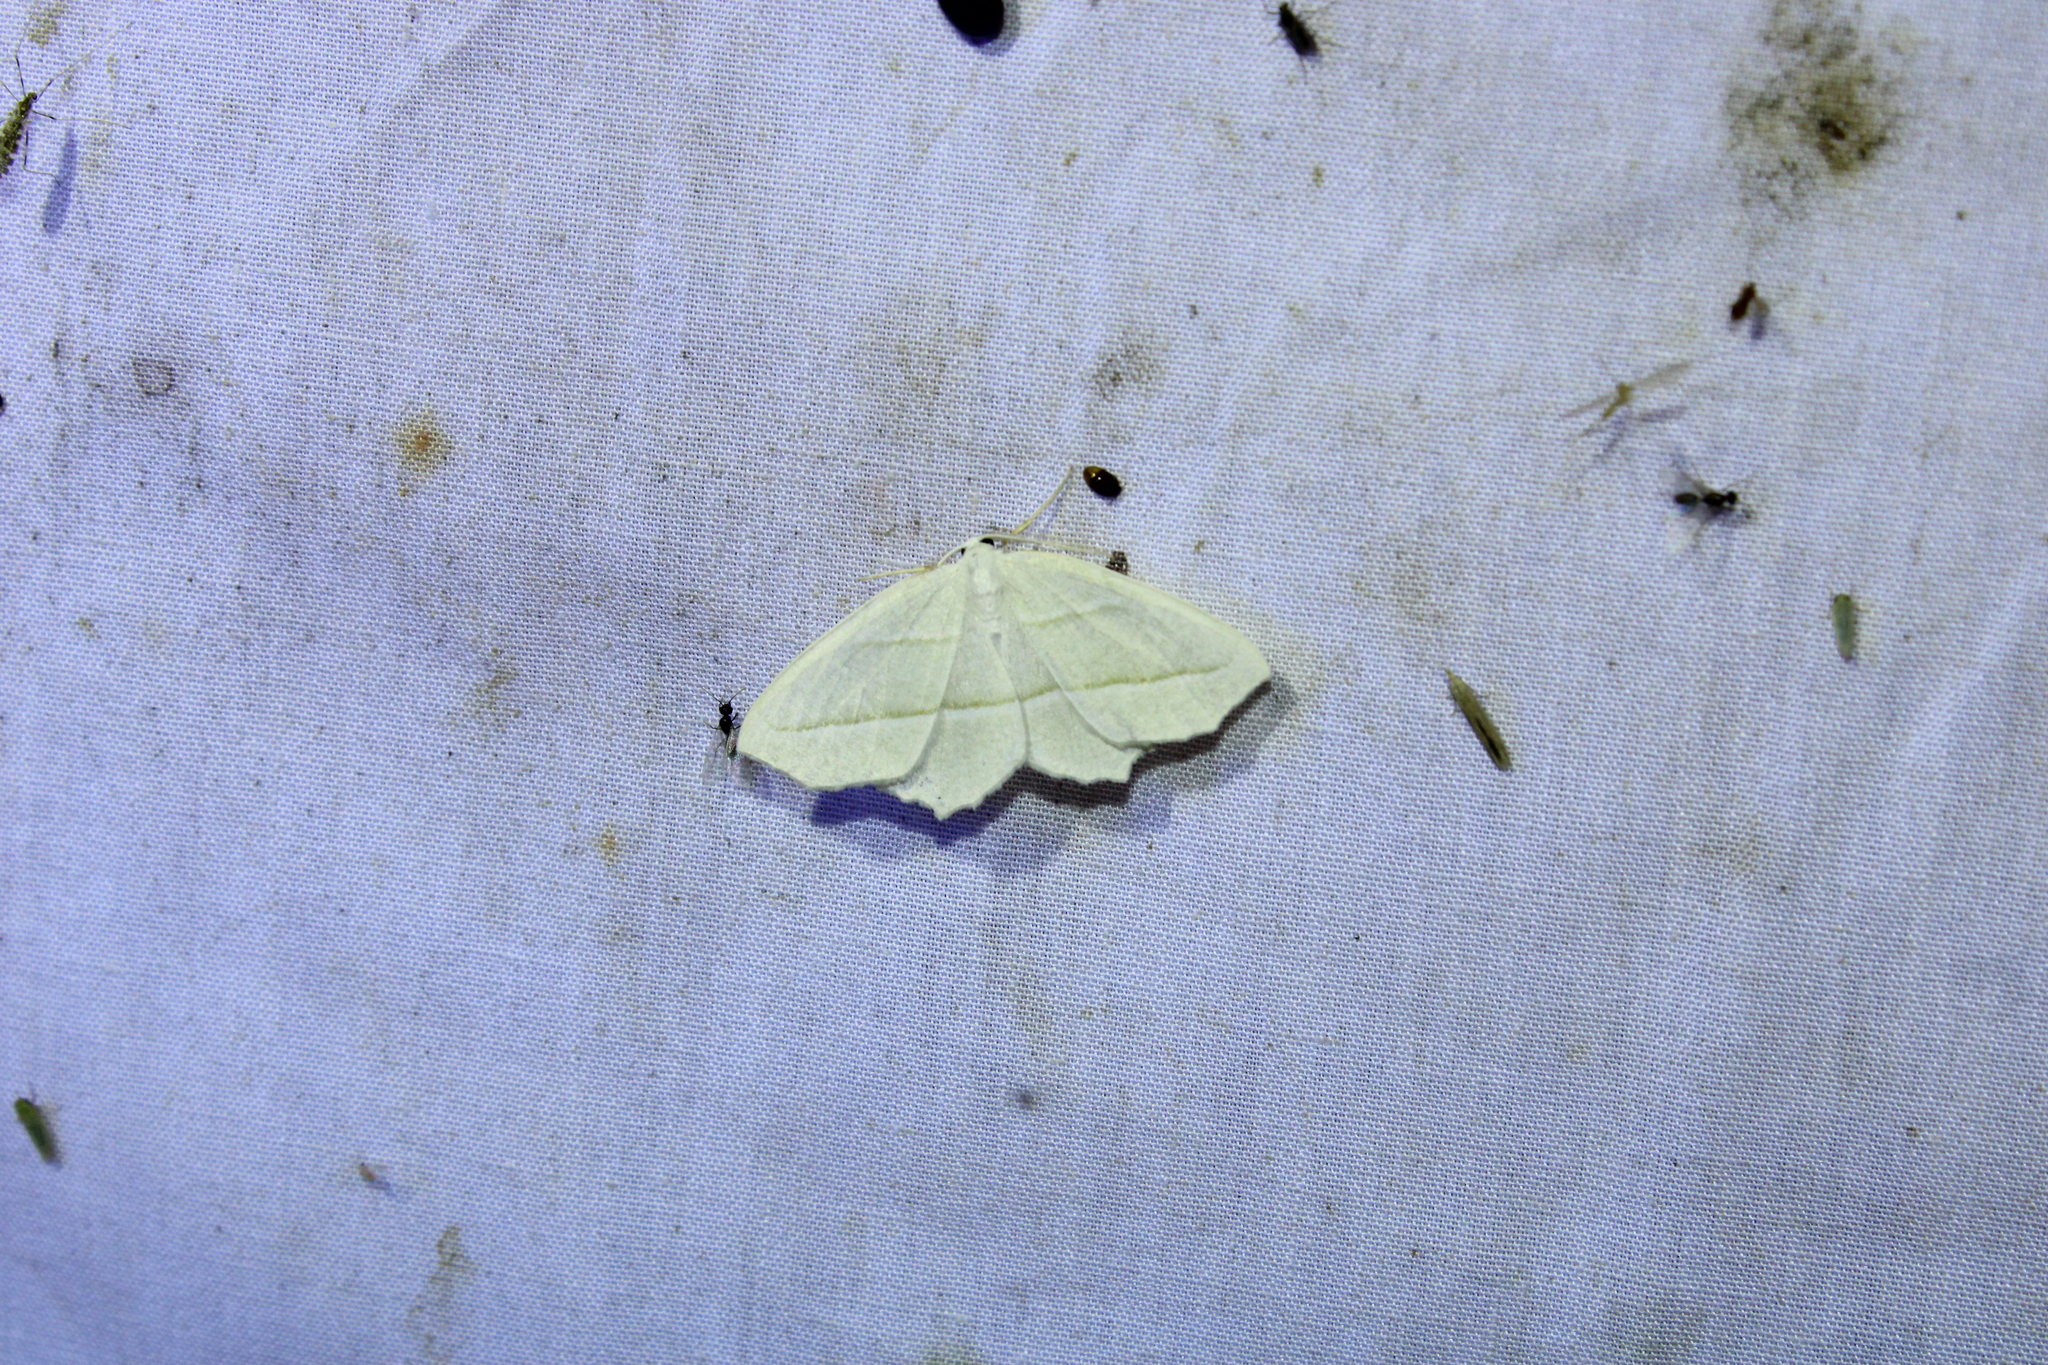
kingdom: Animalia
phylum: Arthropoda
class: Insecta
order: Lepidoptera
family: Geometridae
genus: Campaea
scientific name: Campaea perlata
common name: Fringed looper
